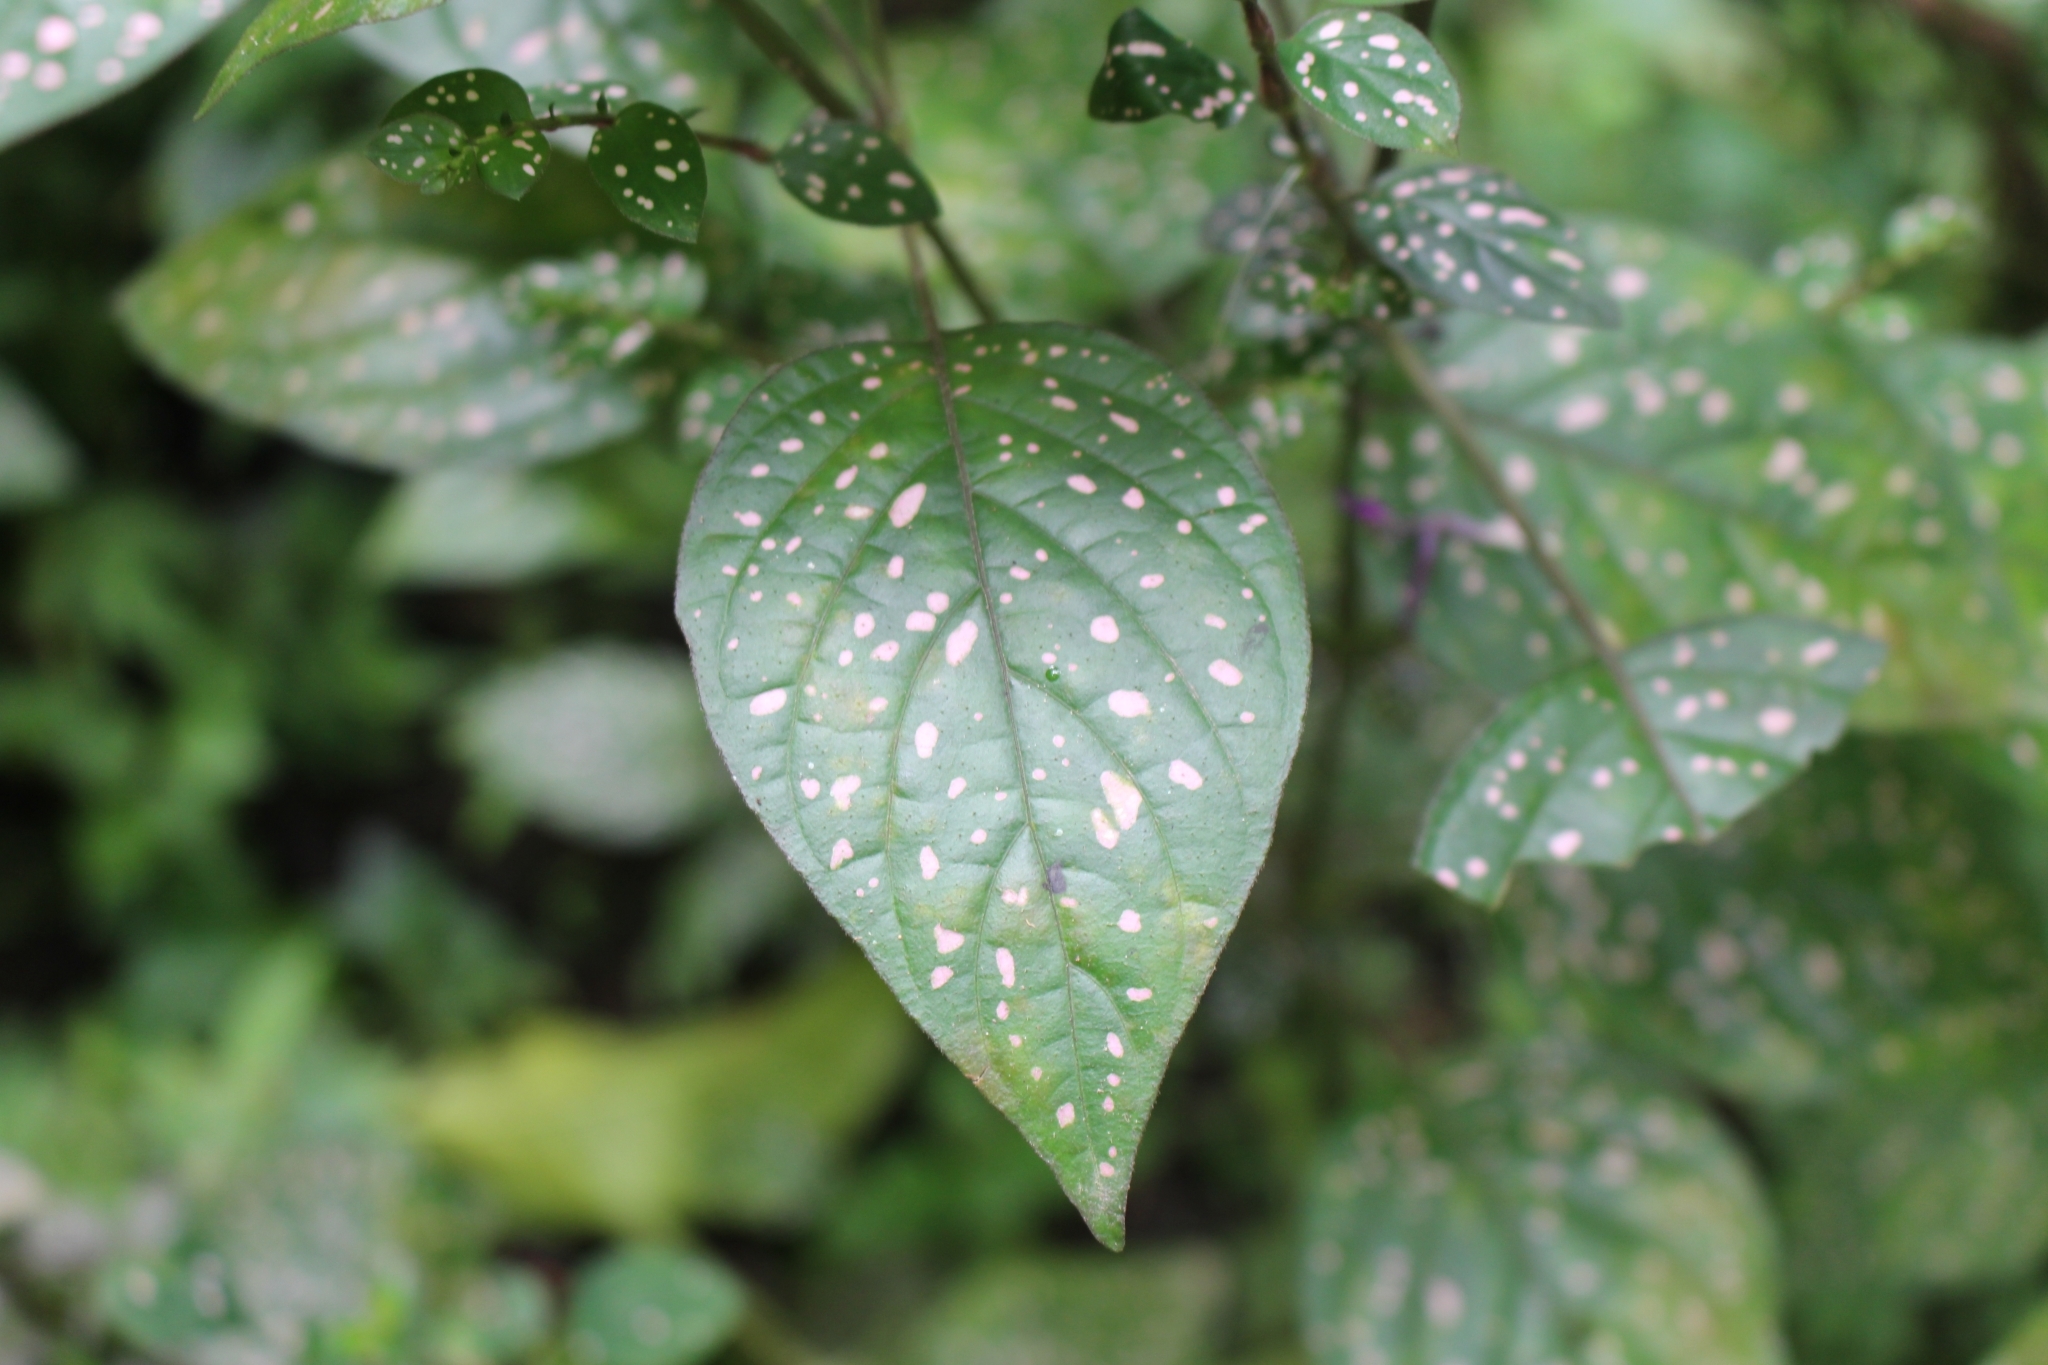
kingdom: Plantae
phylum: Tracheophyta
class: Magnoliopsida
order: Lamiales
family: Acanthaceae
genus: Hypoestes
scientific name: Hypoestes phyllostachya
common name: Polkadot-plant
